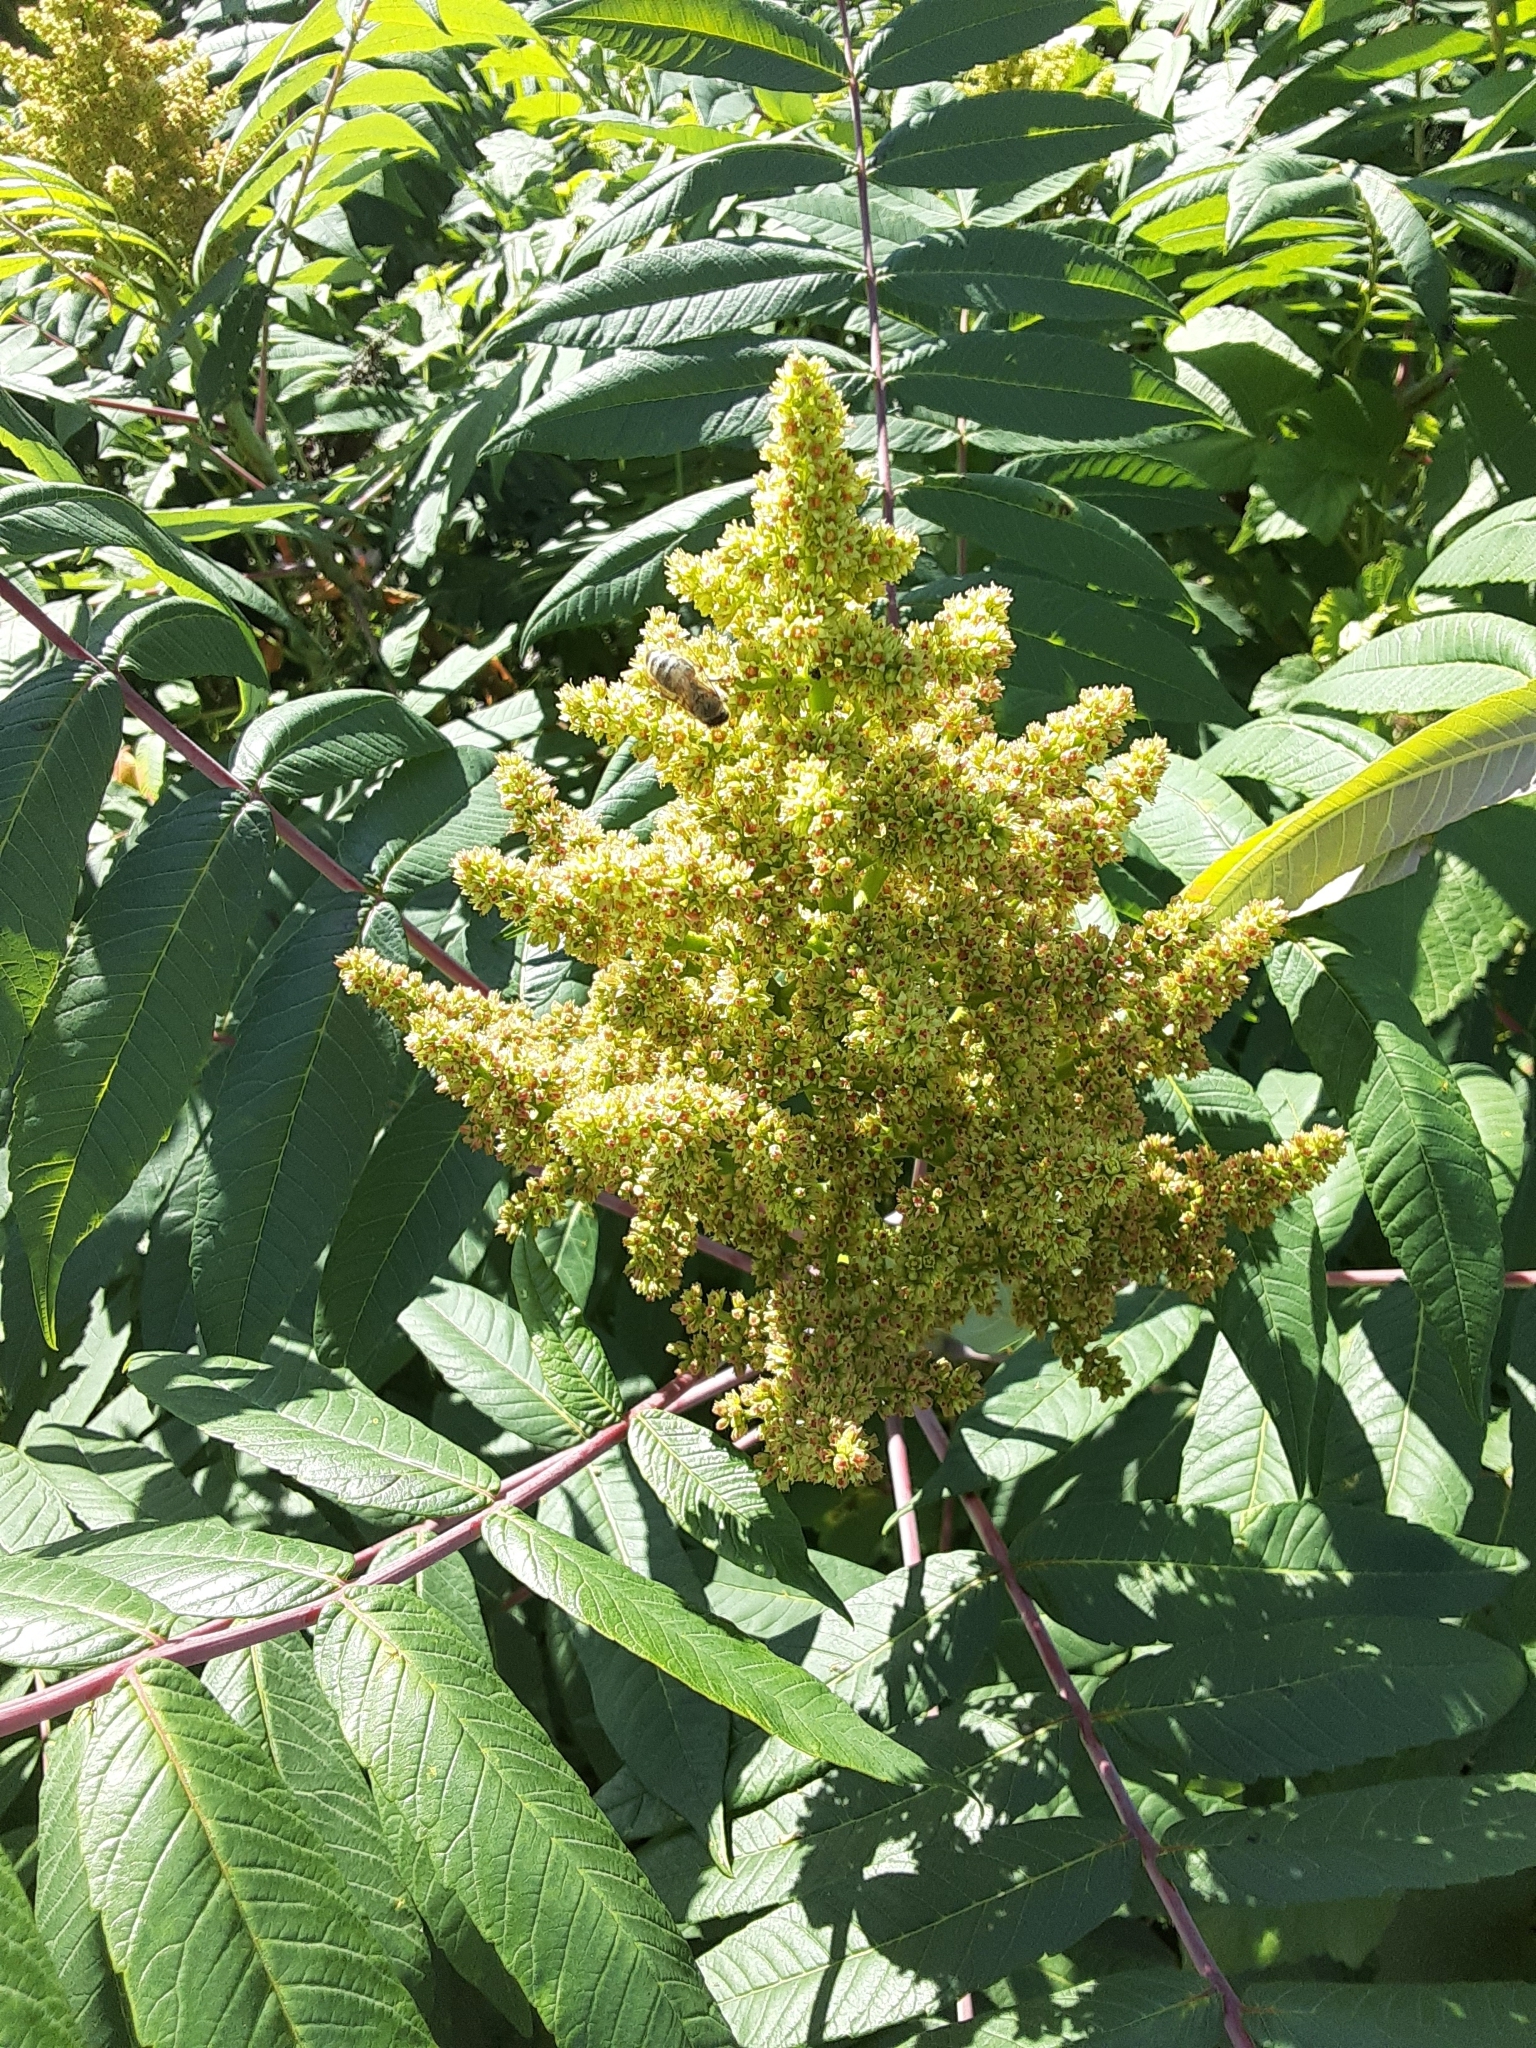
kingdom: Plantae
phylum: Tracheophyta
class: Magnoliopsida
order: Sapindales
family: Anacardiaceae
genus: Rhus
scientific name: Rhus glabra
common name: Scarlet sumac
